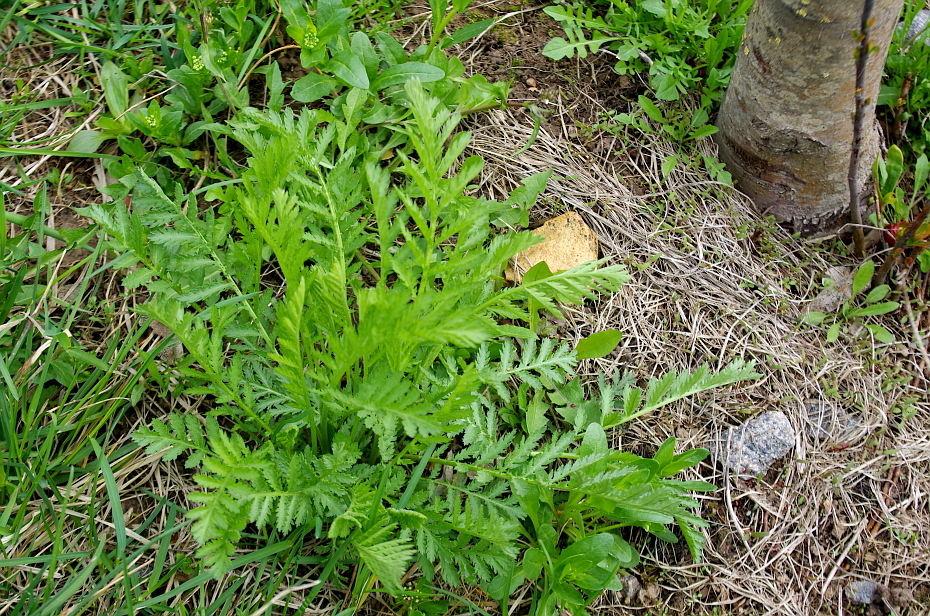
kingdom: Plantae
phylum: Tracheophyta
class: Magnoliopsida
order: Asterales
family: Asteraceae
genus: Tanacetum
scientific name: Tanacetum vulgare
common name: Common tansy
